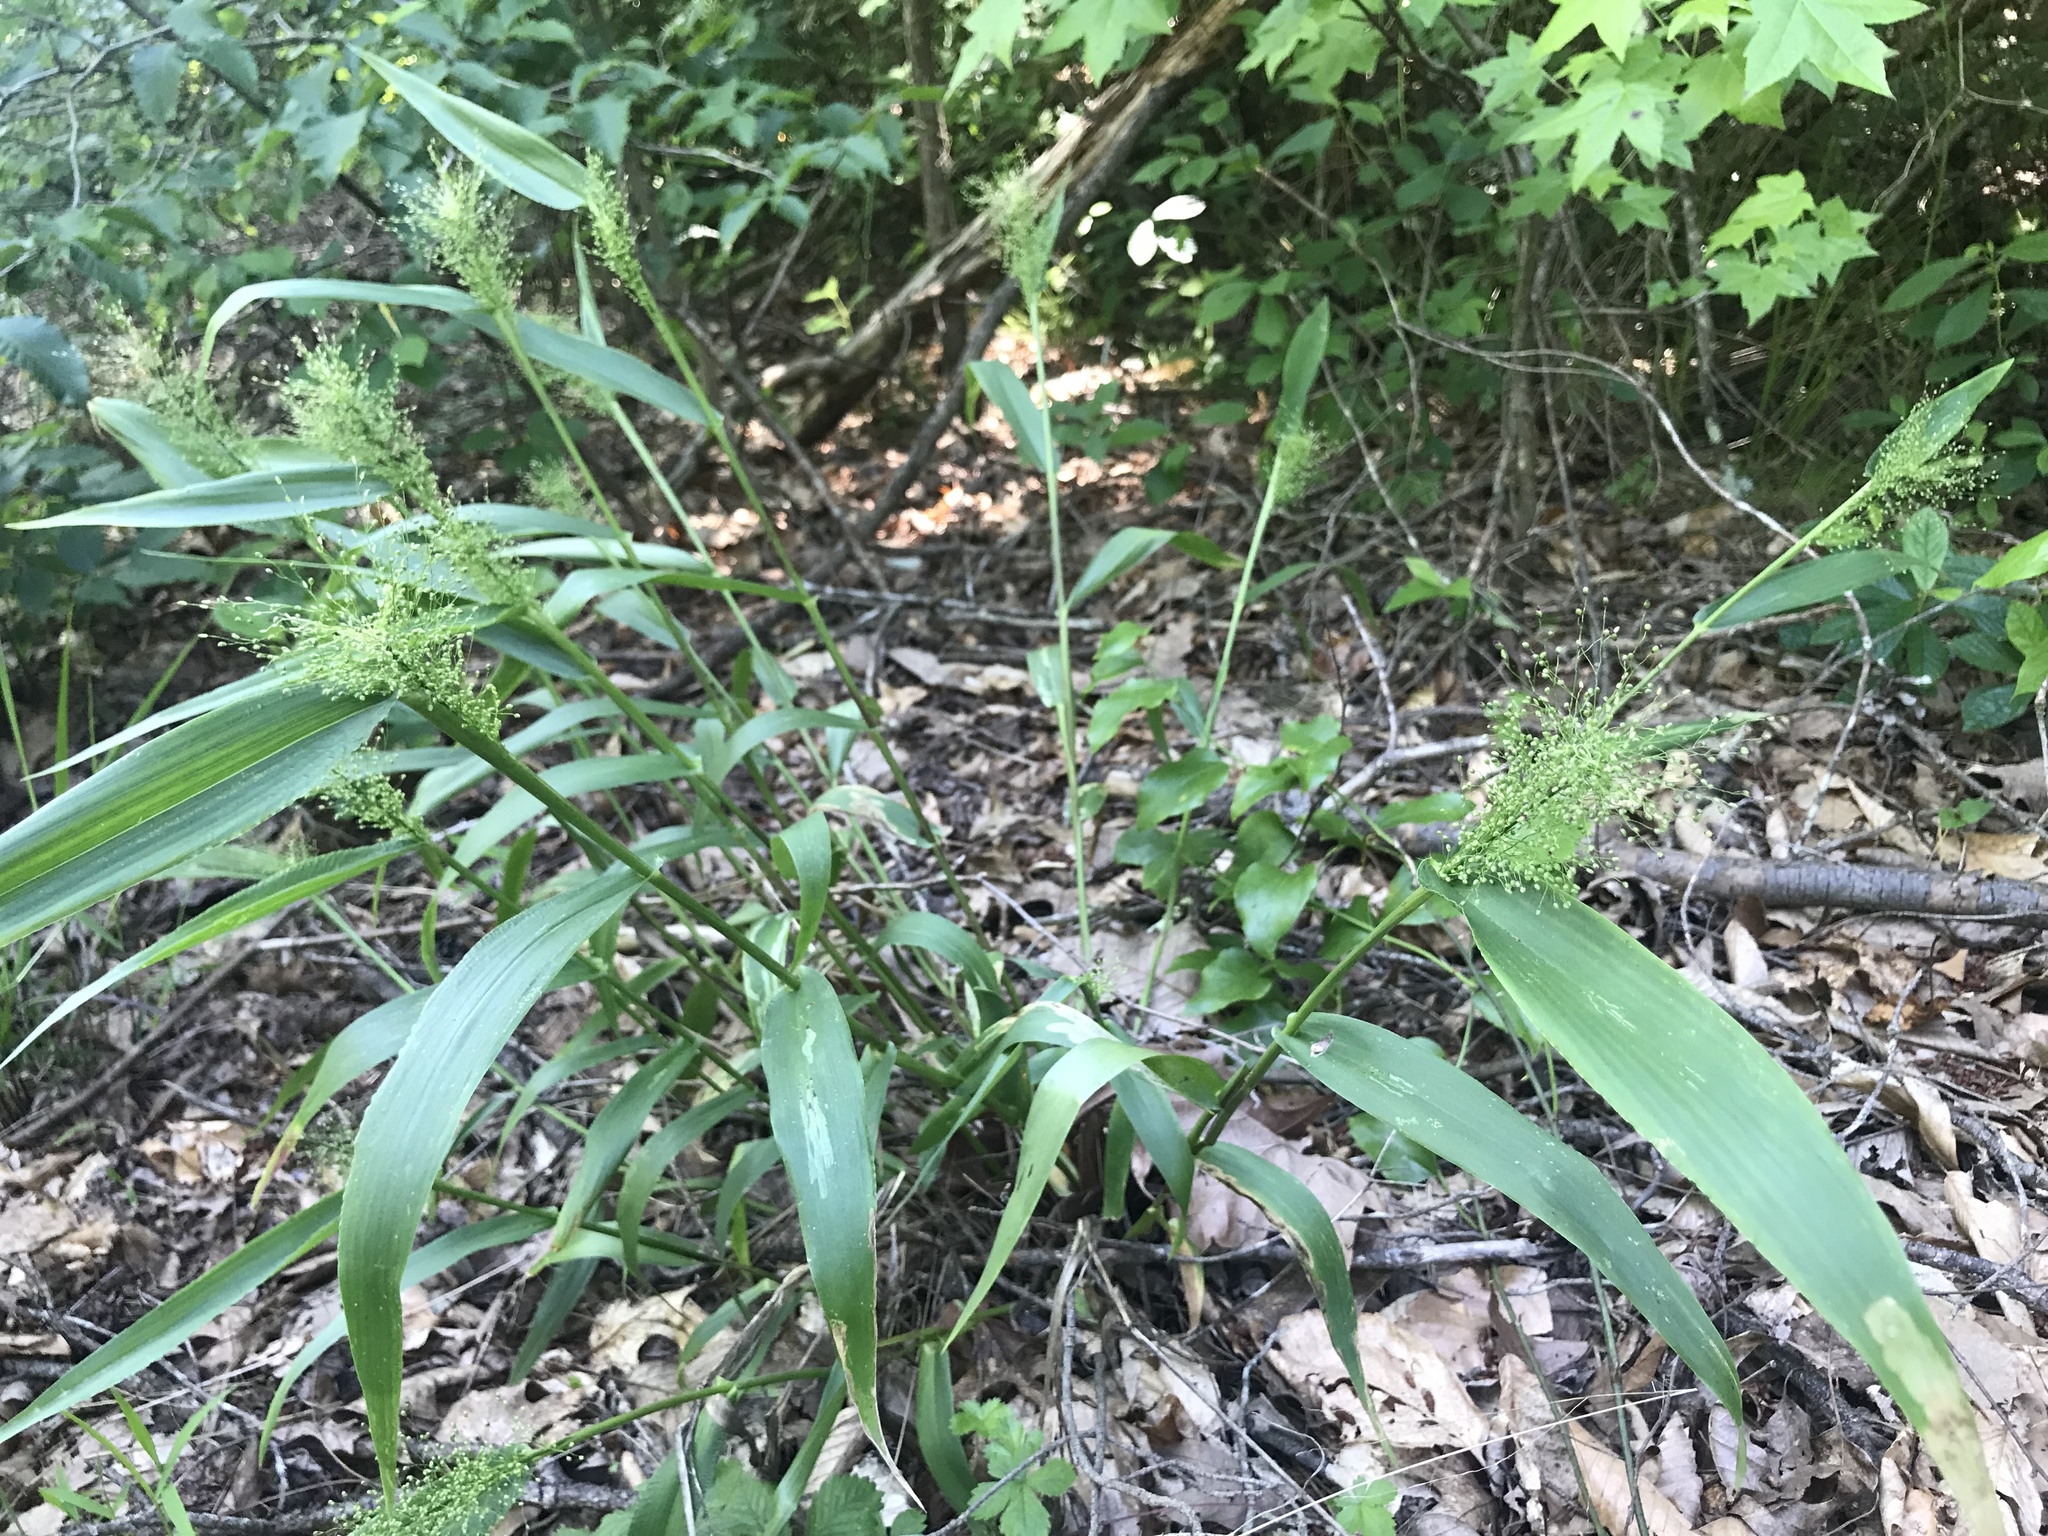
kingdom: Plantae
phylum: Tracheophyta
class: Liliopsida
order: Poales
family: Poaceae
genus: Dichanthelium
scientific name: Dichanthelium polyanthes
